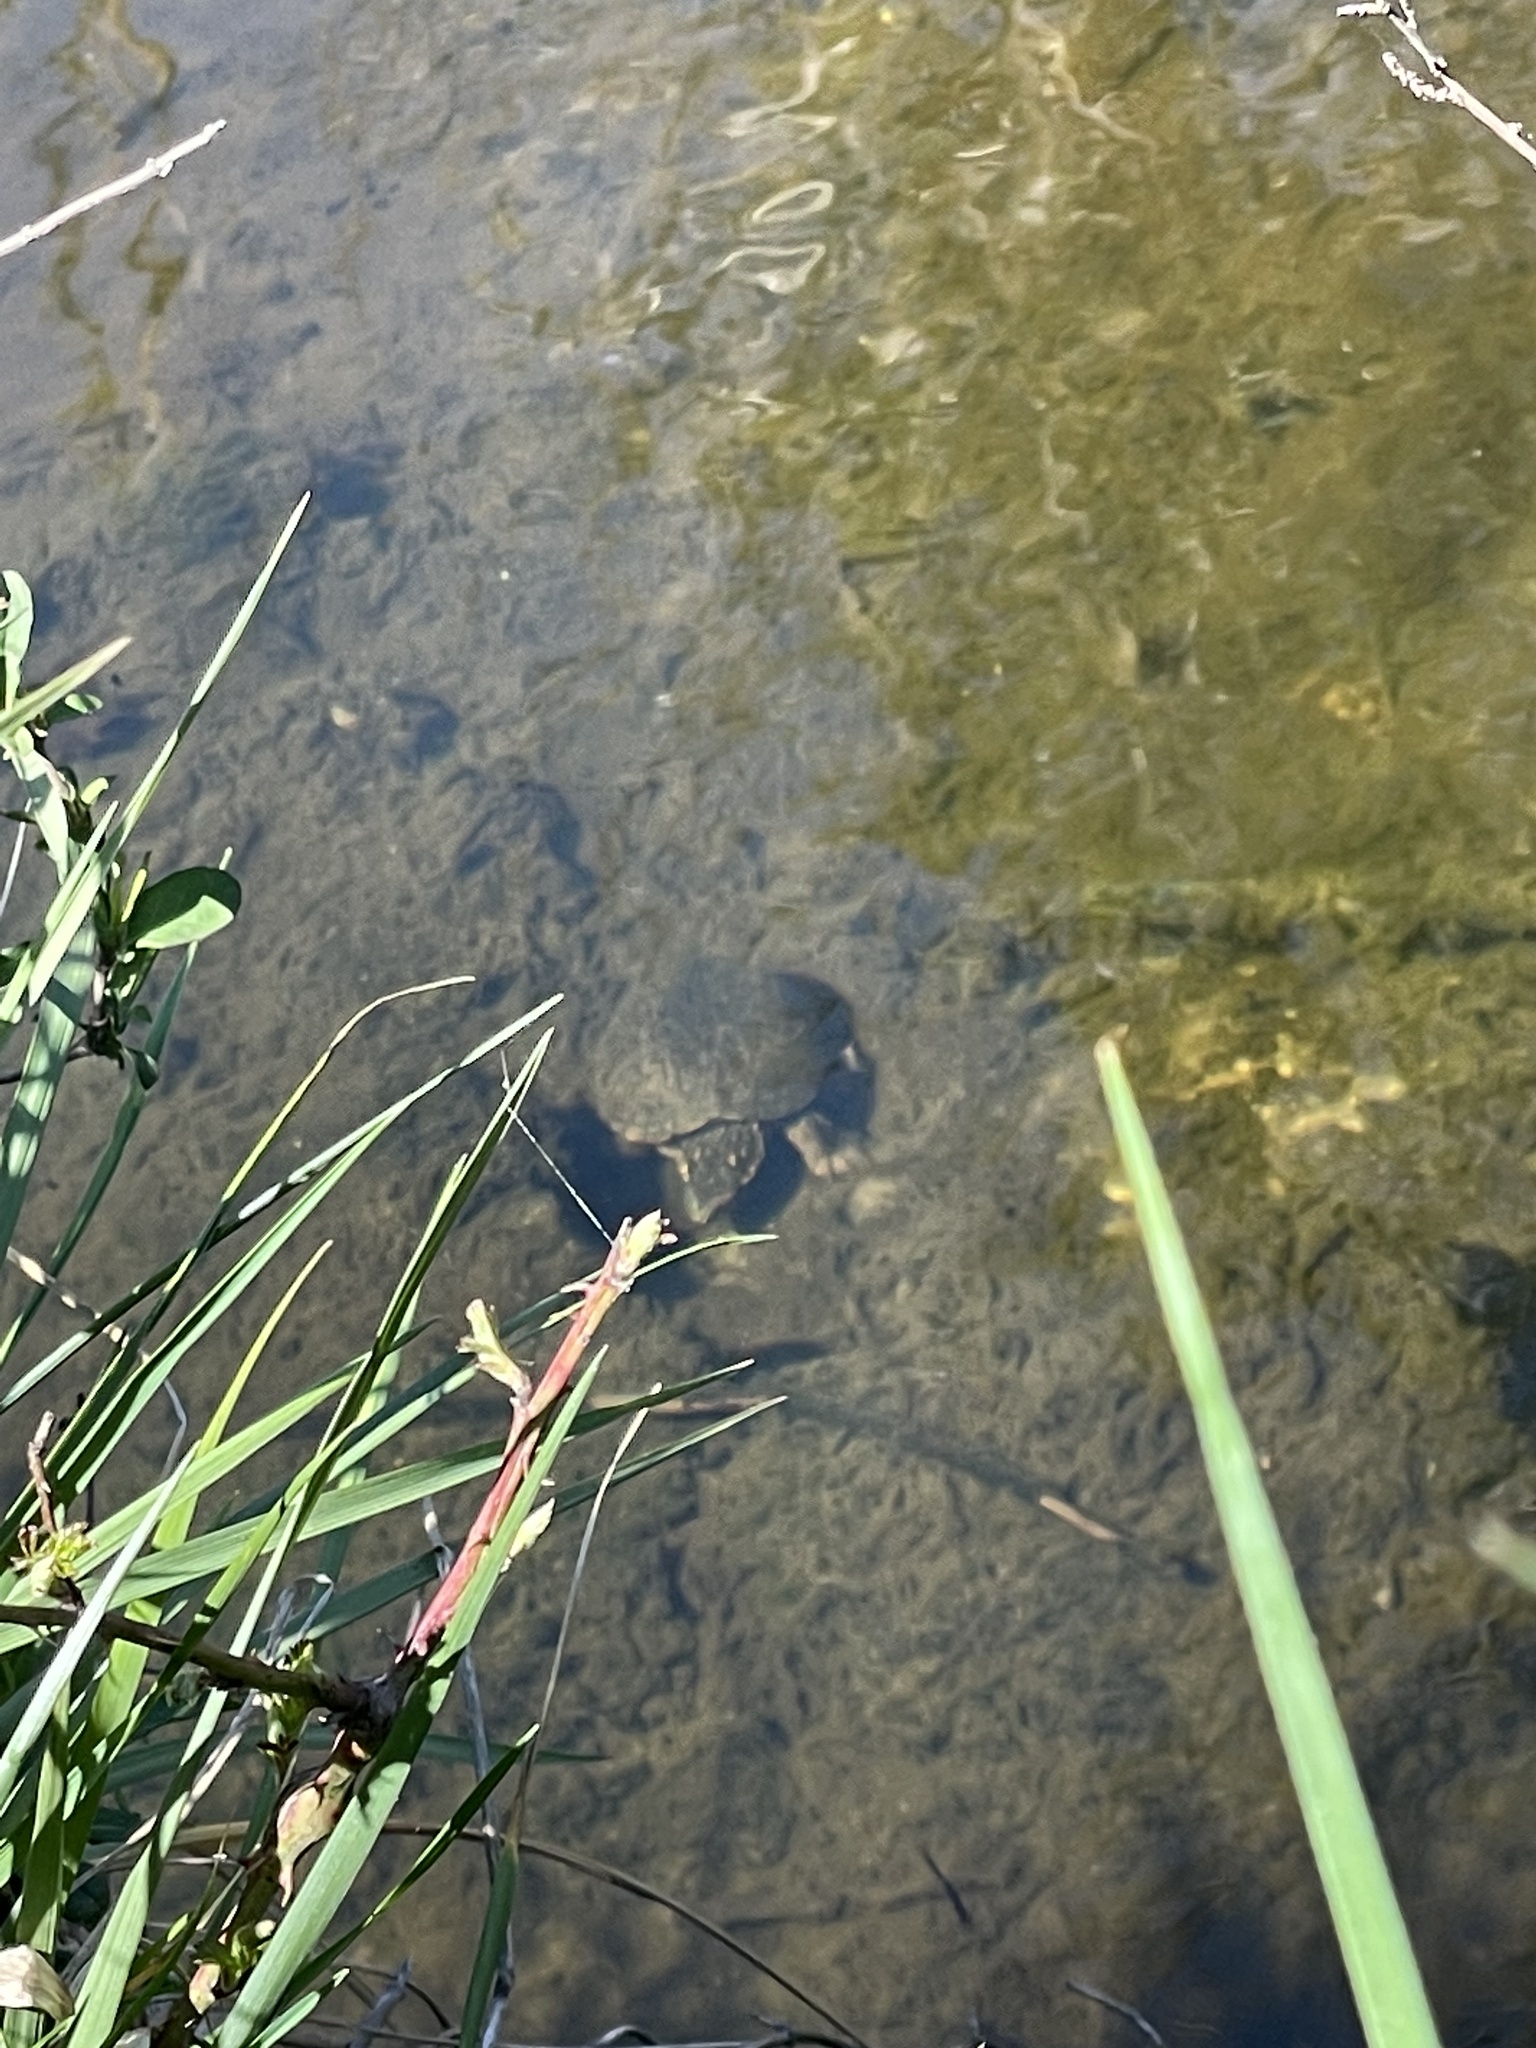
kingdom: Animalia
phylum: Chordata
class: Testudines
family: Kinosternidae
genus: Sternotherus
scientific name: Sternotherus odoratus
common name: Common musk turtle
